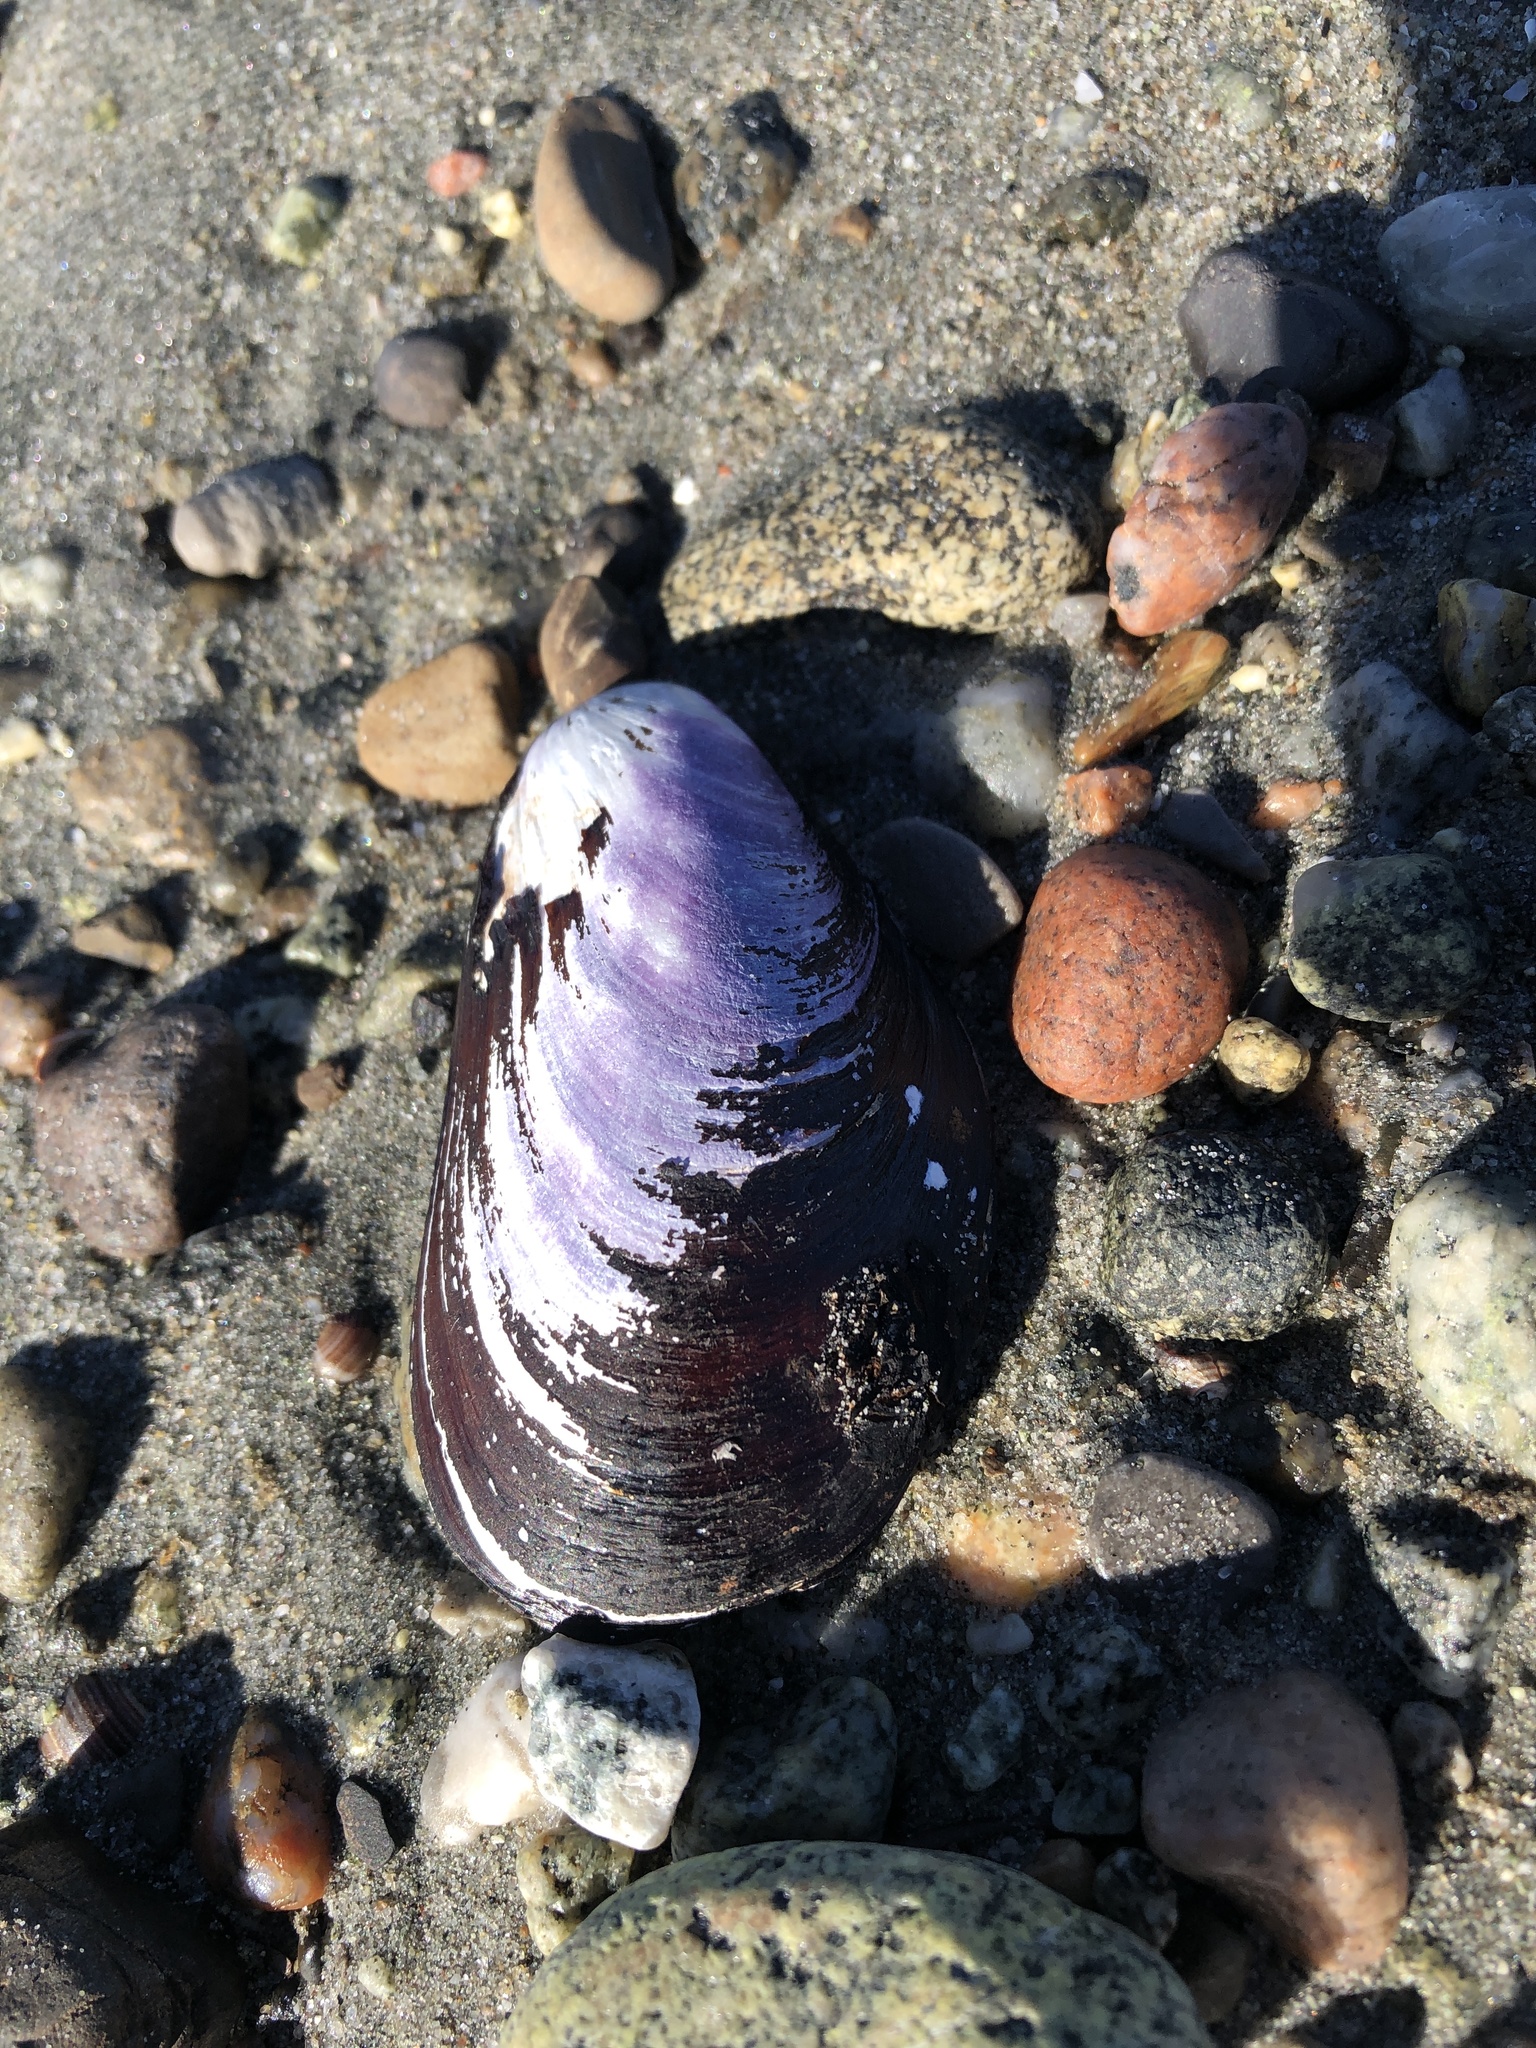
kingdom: Animalia
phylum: Mollusca
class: Bivalvia
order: Mytilida
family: Mytilidae
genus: Mytilus
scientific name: Mytilus edulis
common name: Blue mussel
